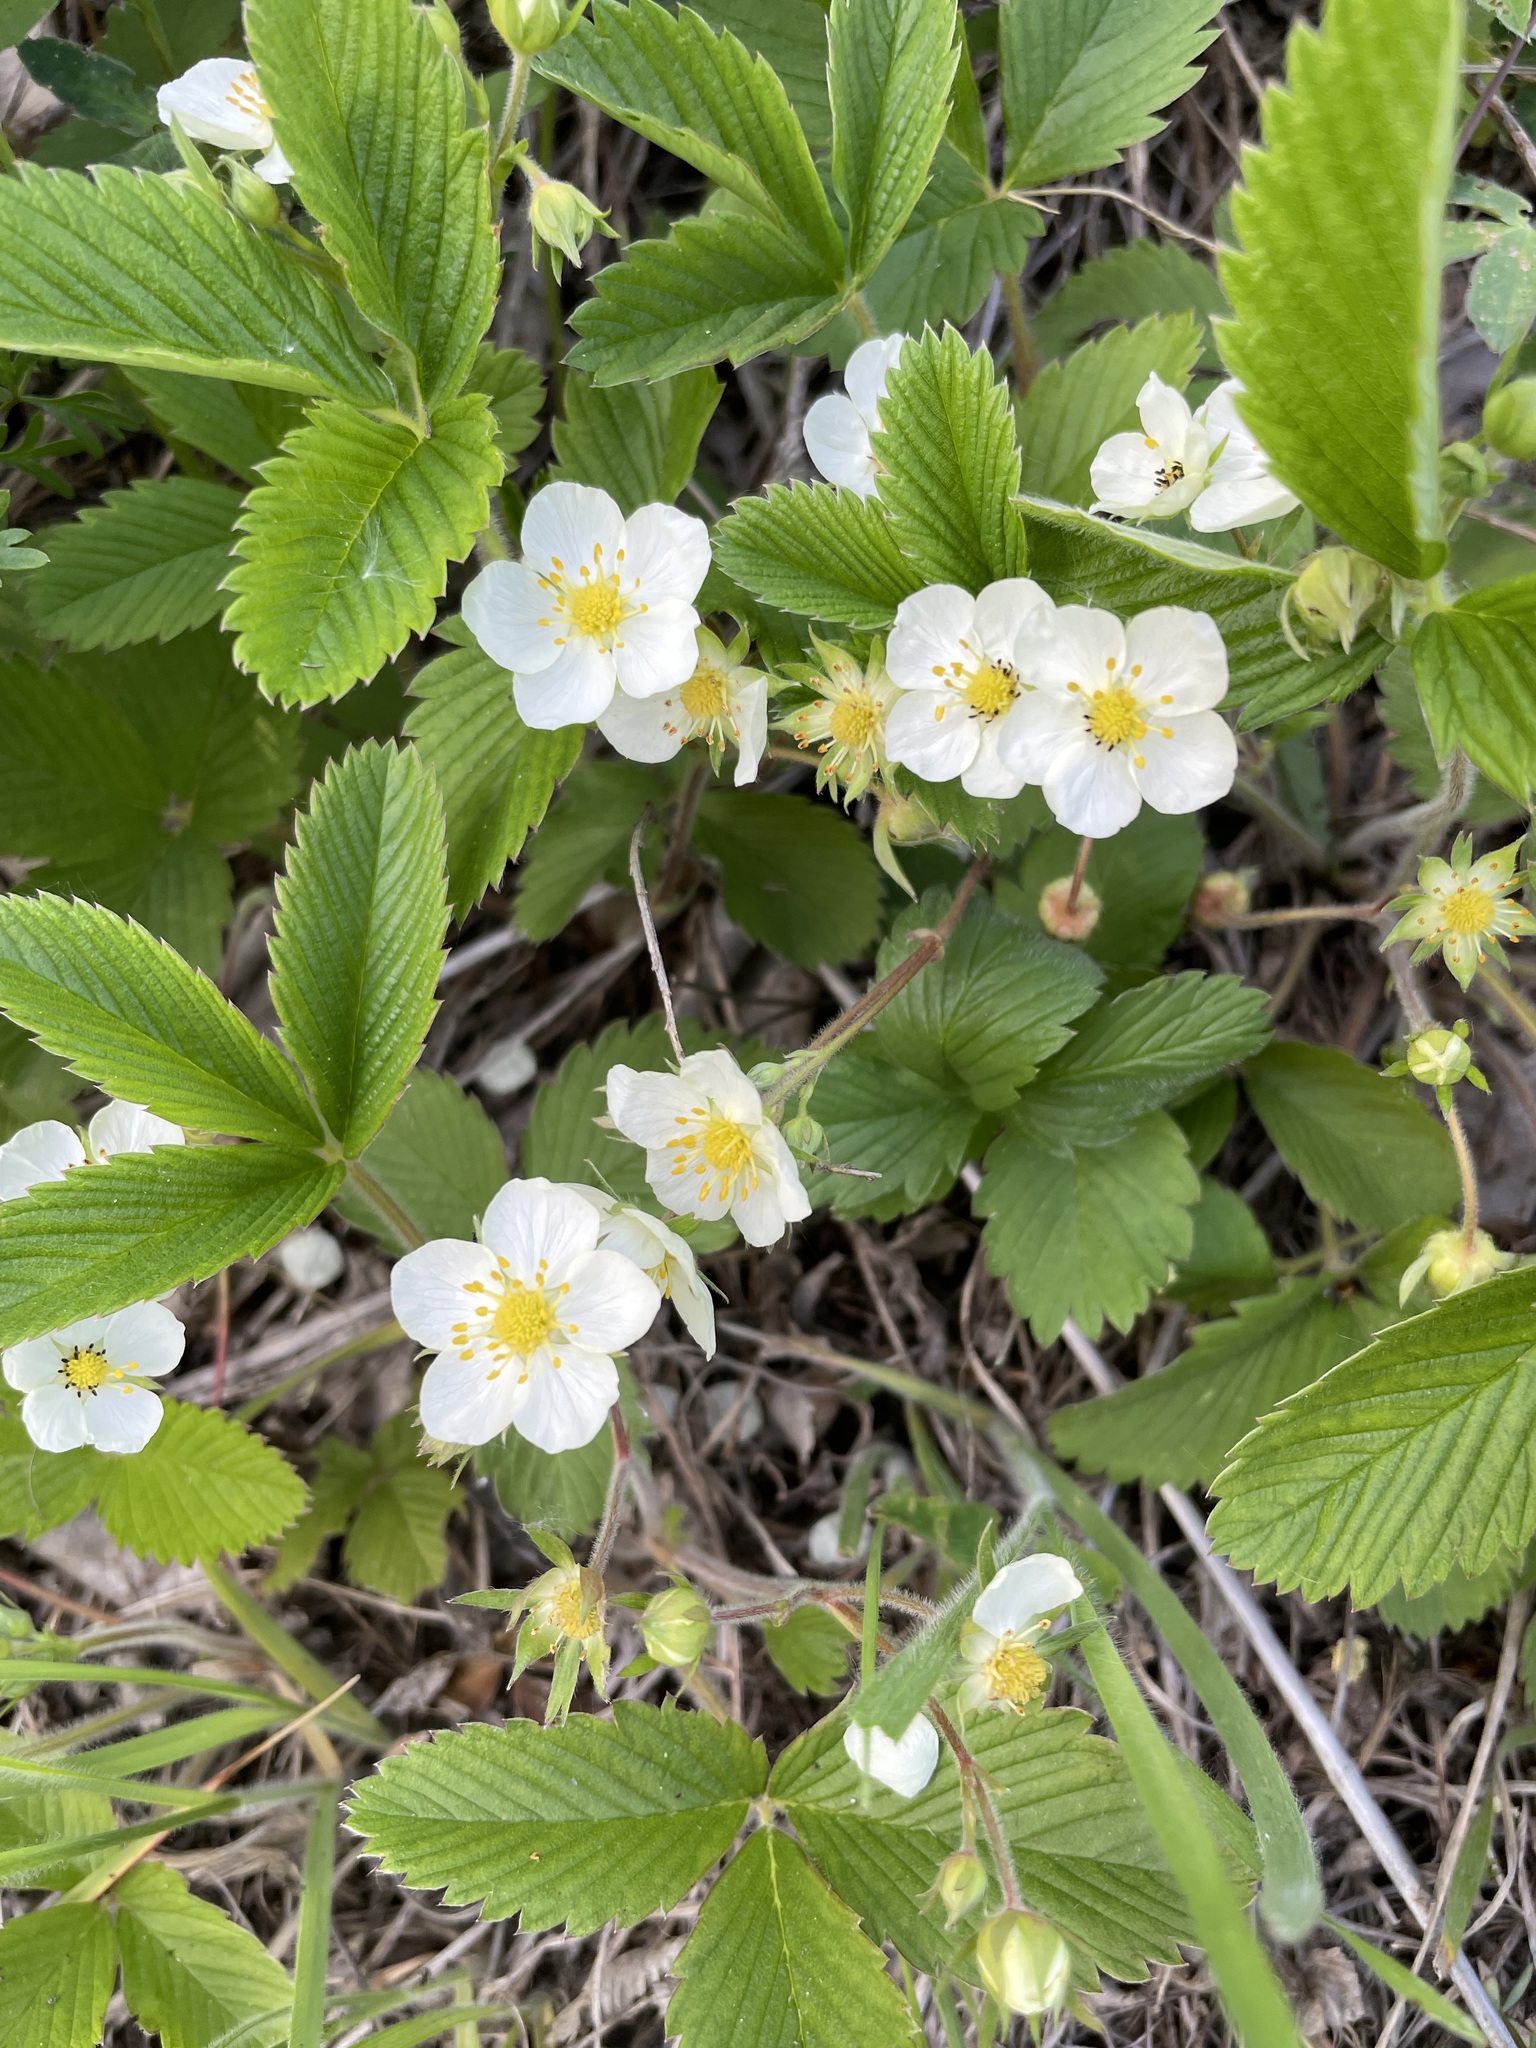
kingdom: Plantae
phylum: Tracheophyta
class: Magnoliopsida
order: Rosales
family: Rosaceae
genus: Fragaria
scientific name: Fragaria viridis
